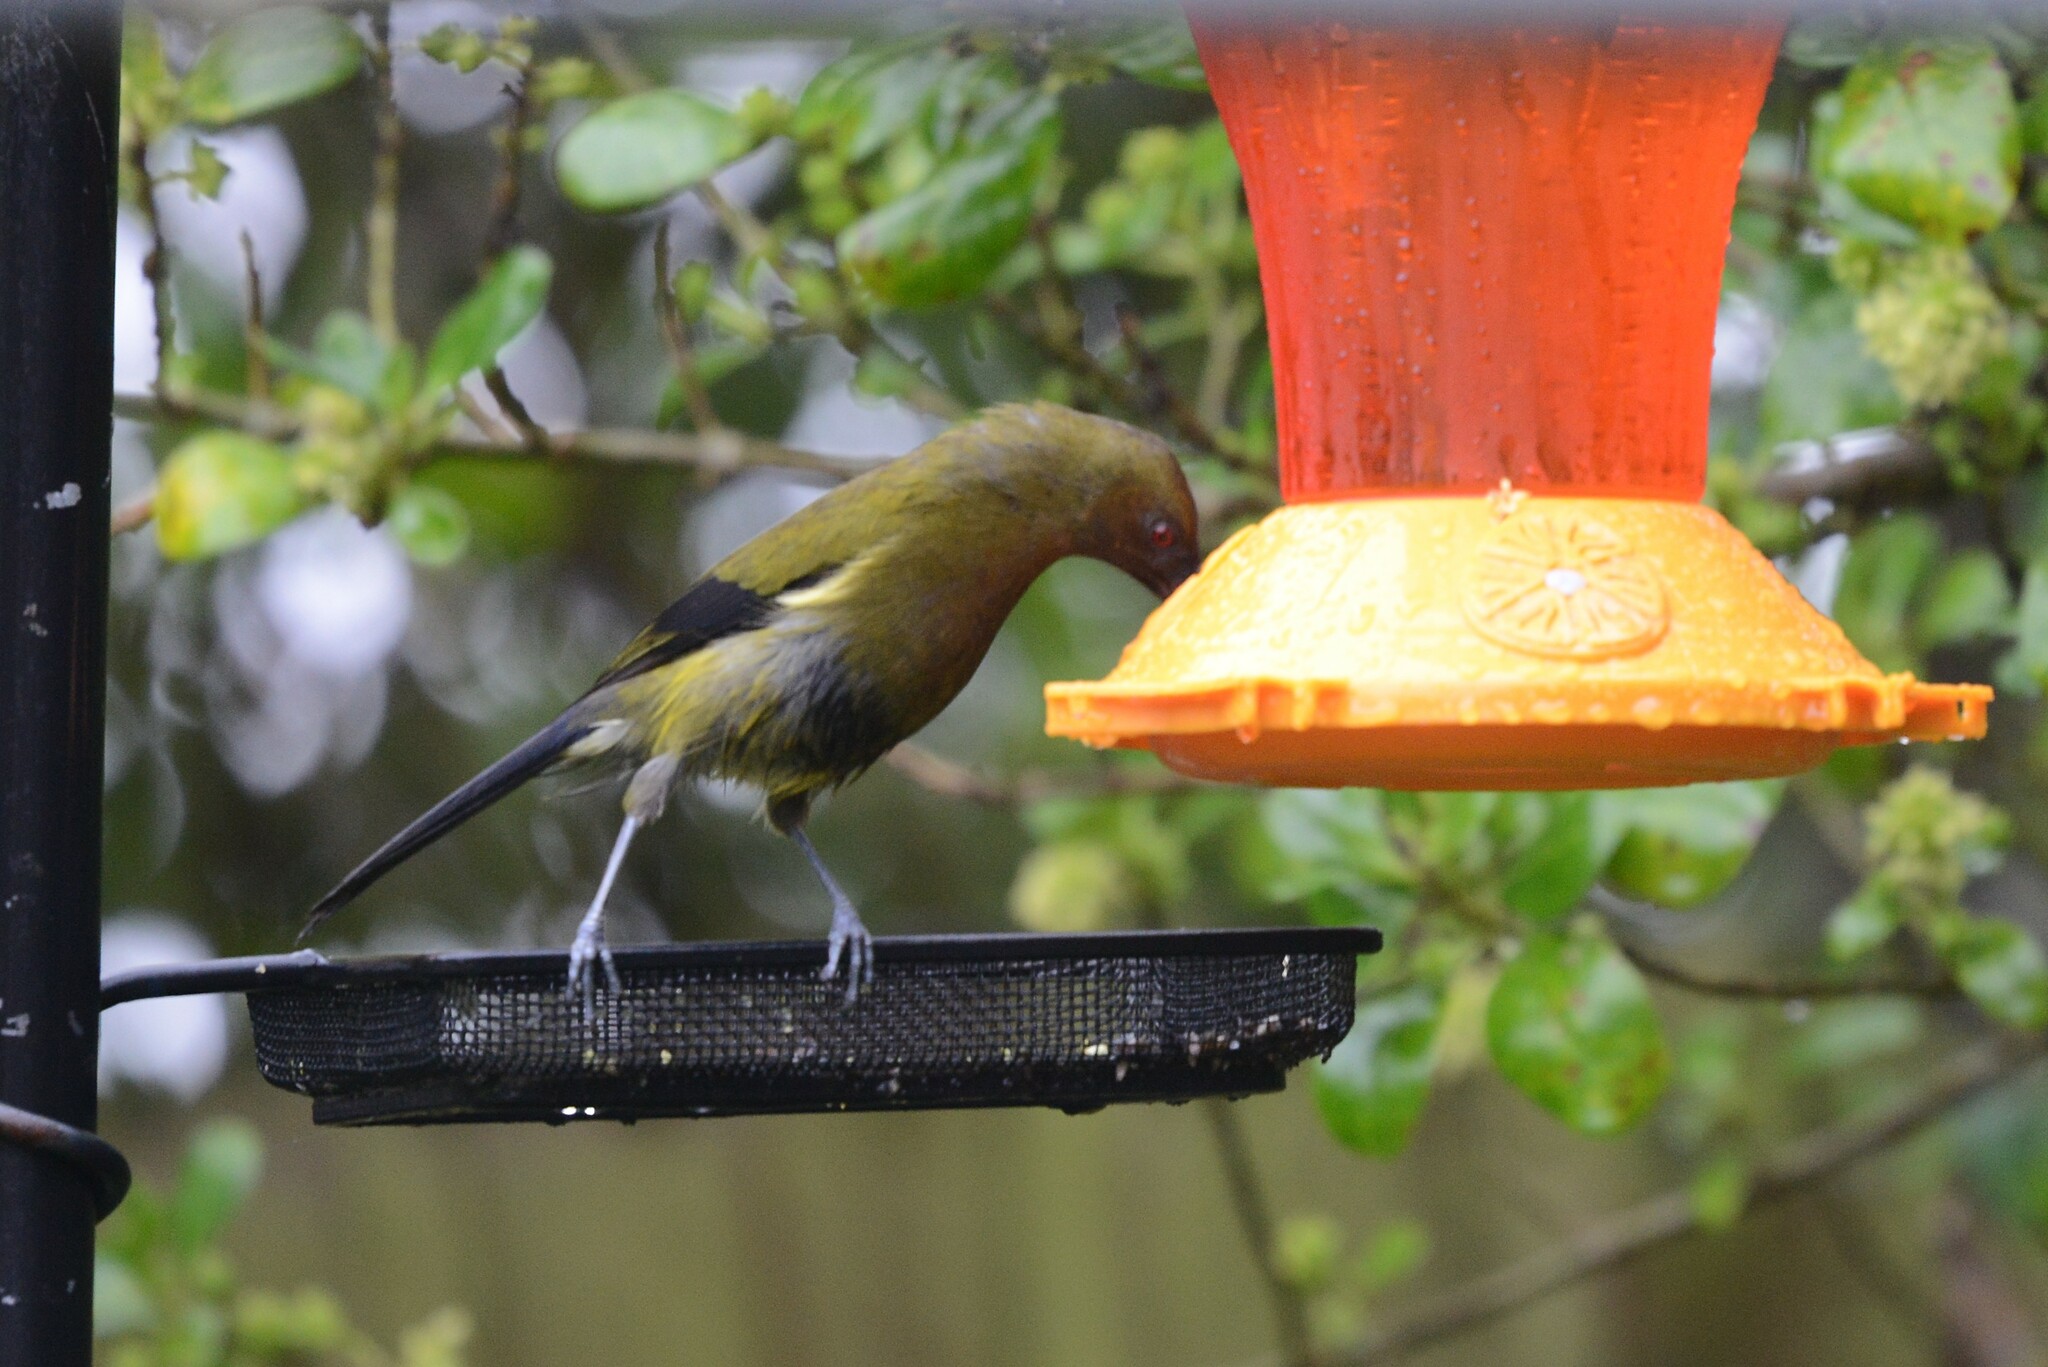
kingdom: Animalia
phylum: Chordata
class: Aves
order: Passeriformes
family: Meliphagidae
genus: Anthornis
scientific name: Anthornis melanura
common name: New zealand bellbird
